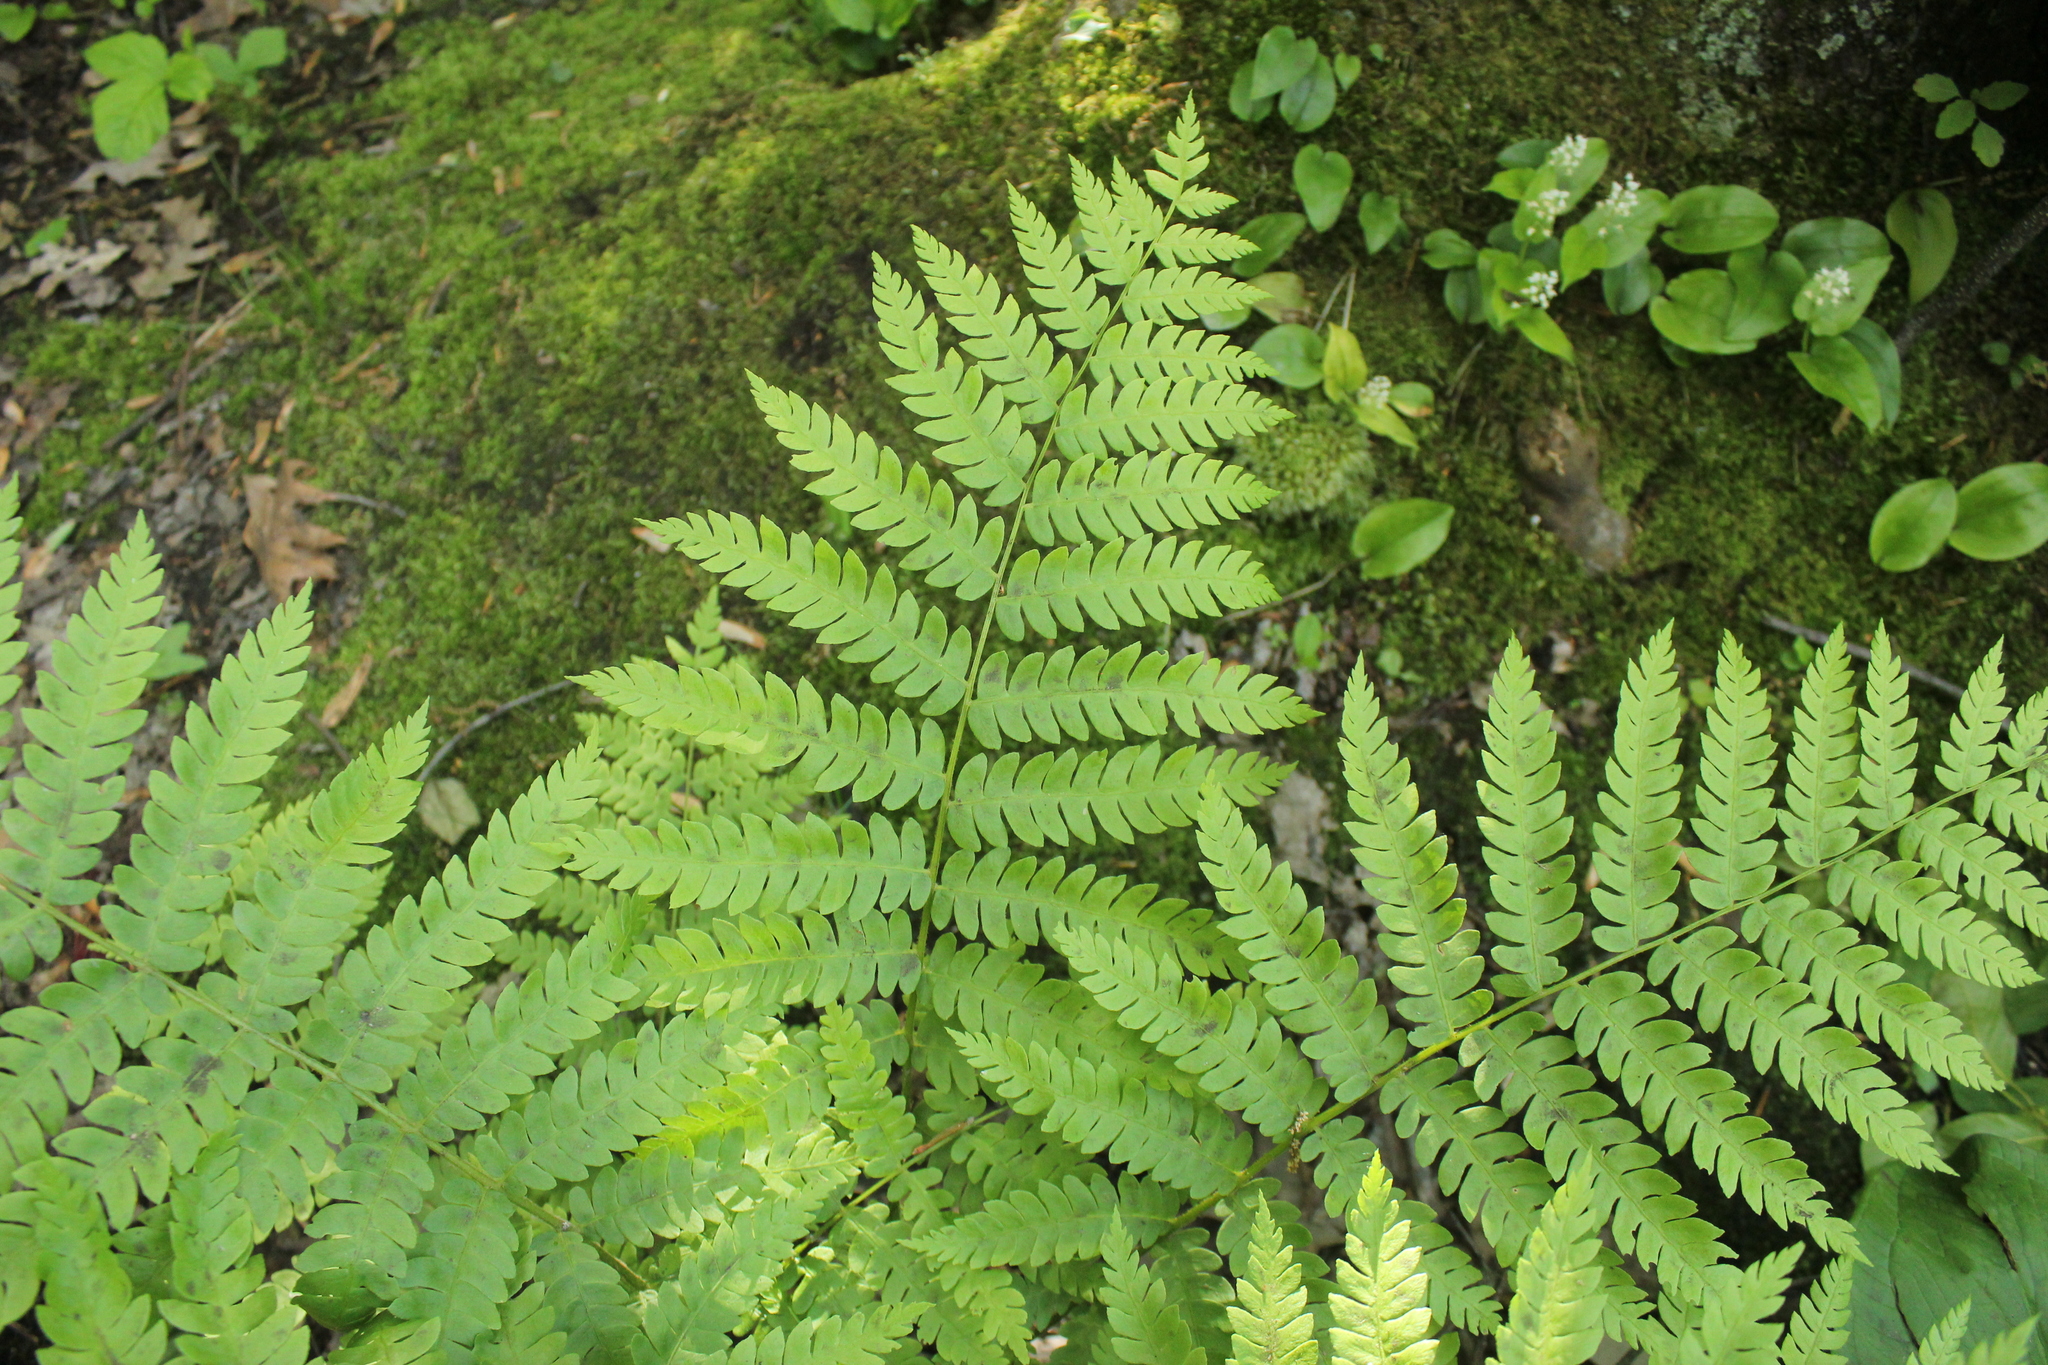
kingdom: Plantae
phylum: Tracheophyta
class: Polypodiopsida
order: Osmundales
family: Osmundaceae
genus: Osmundastrum
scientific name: Osmundastrum cinnamomeum
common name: Cinnamon fern
